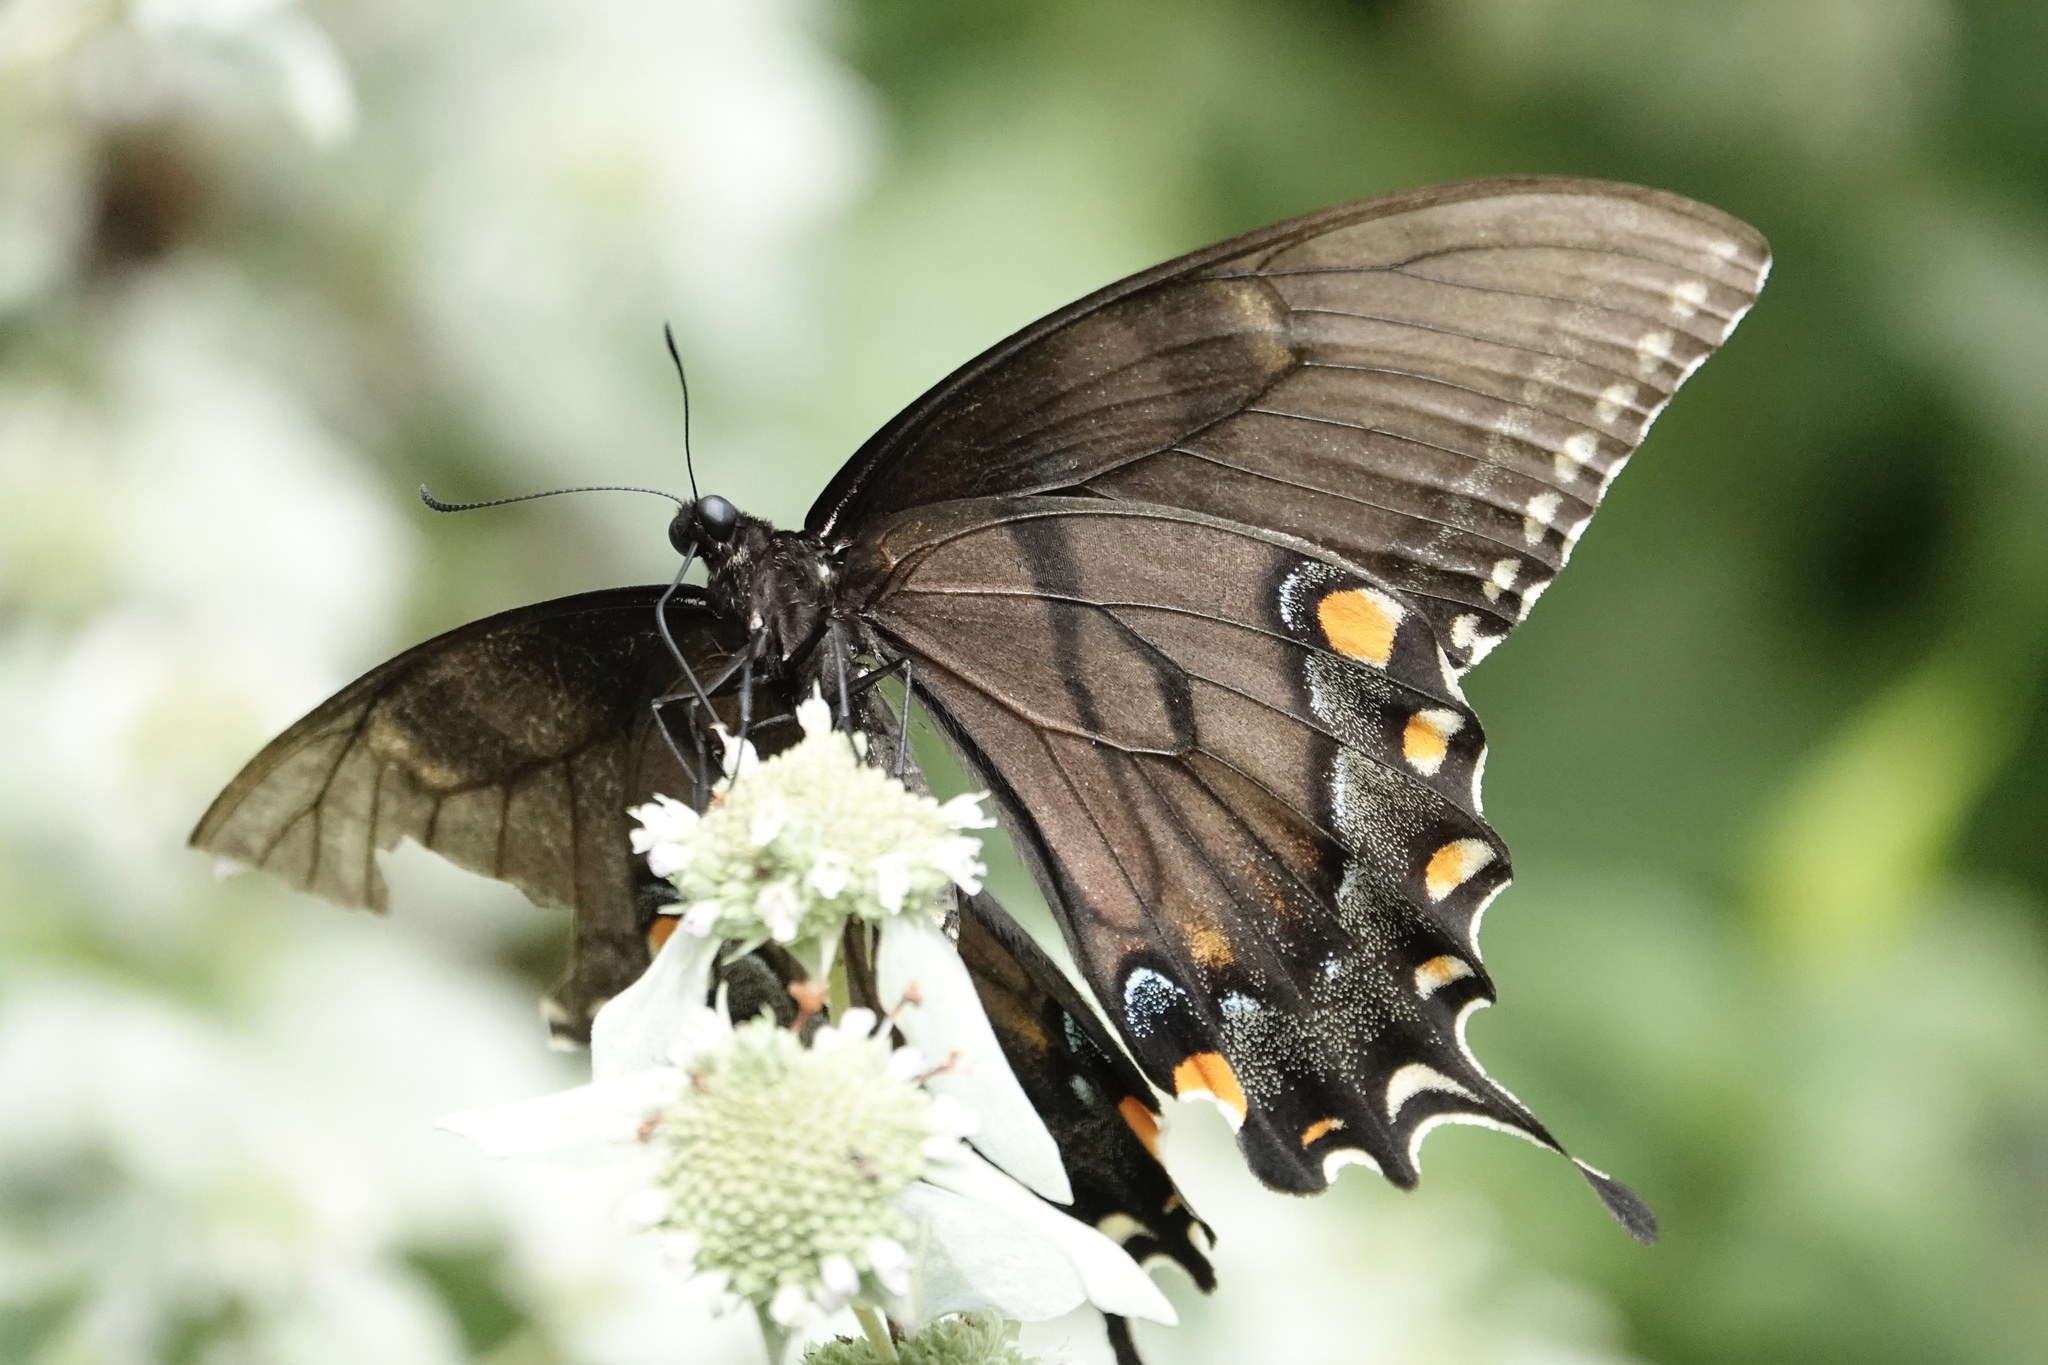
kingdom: Animalia
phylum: Arthropoda
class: Insecta
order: Lepidoptera
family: Papilionidae
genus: Papilio
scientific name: Papilio glaucus
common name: Tiger swallowtail
